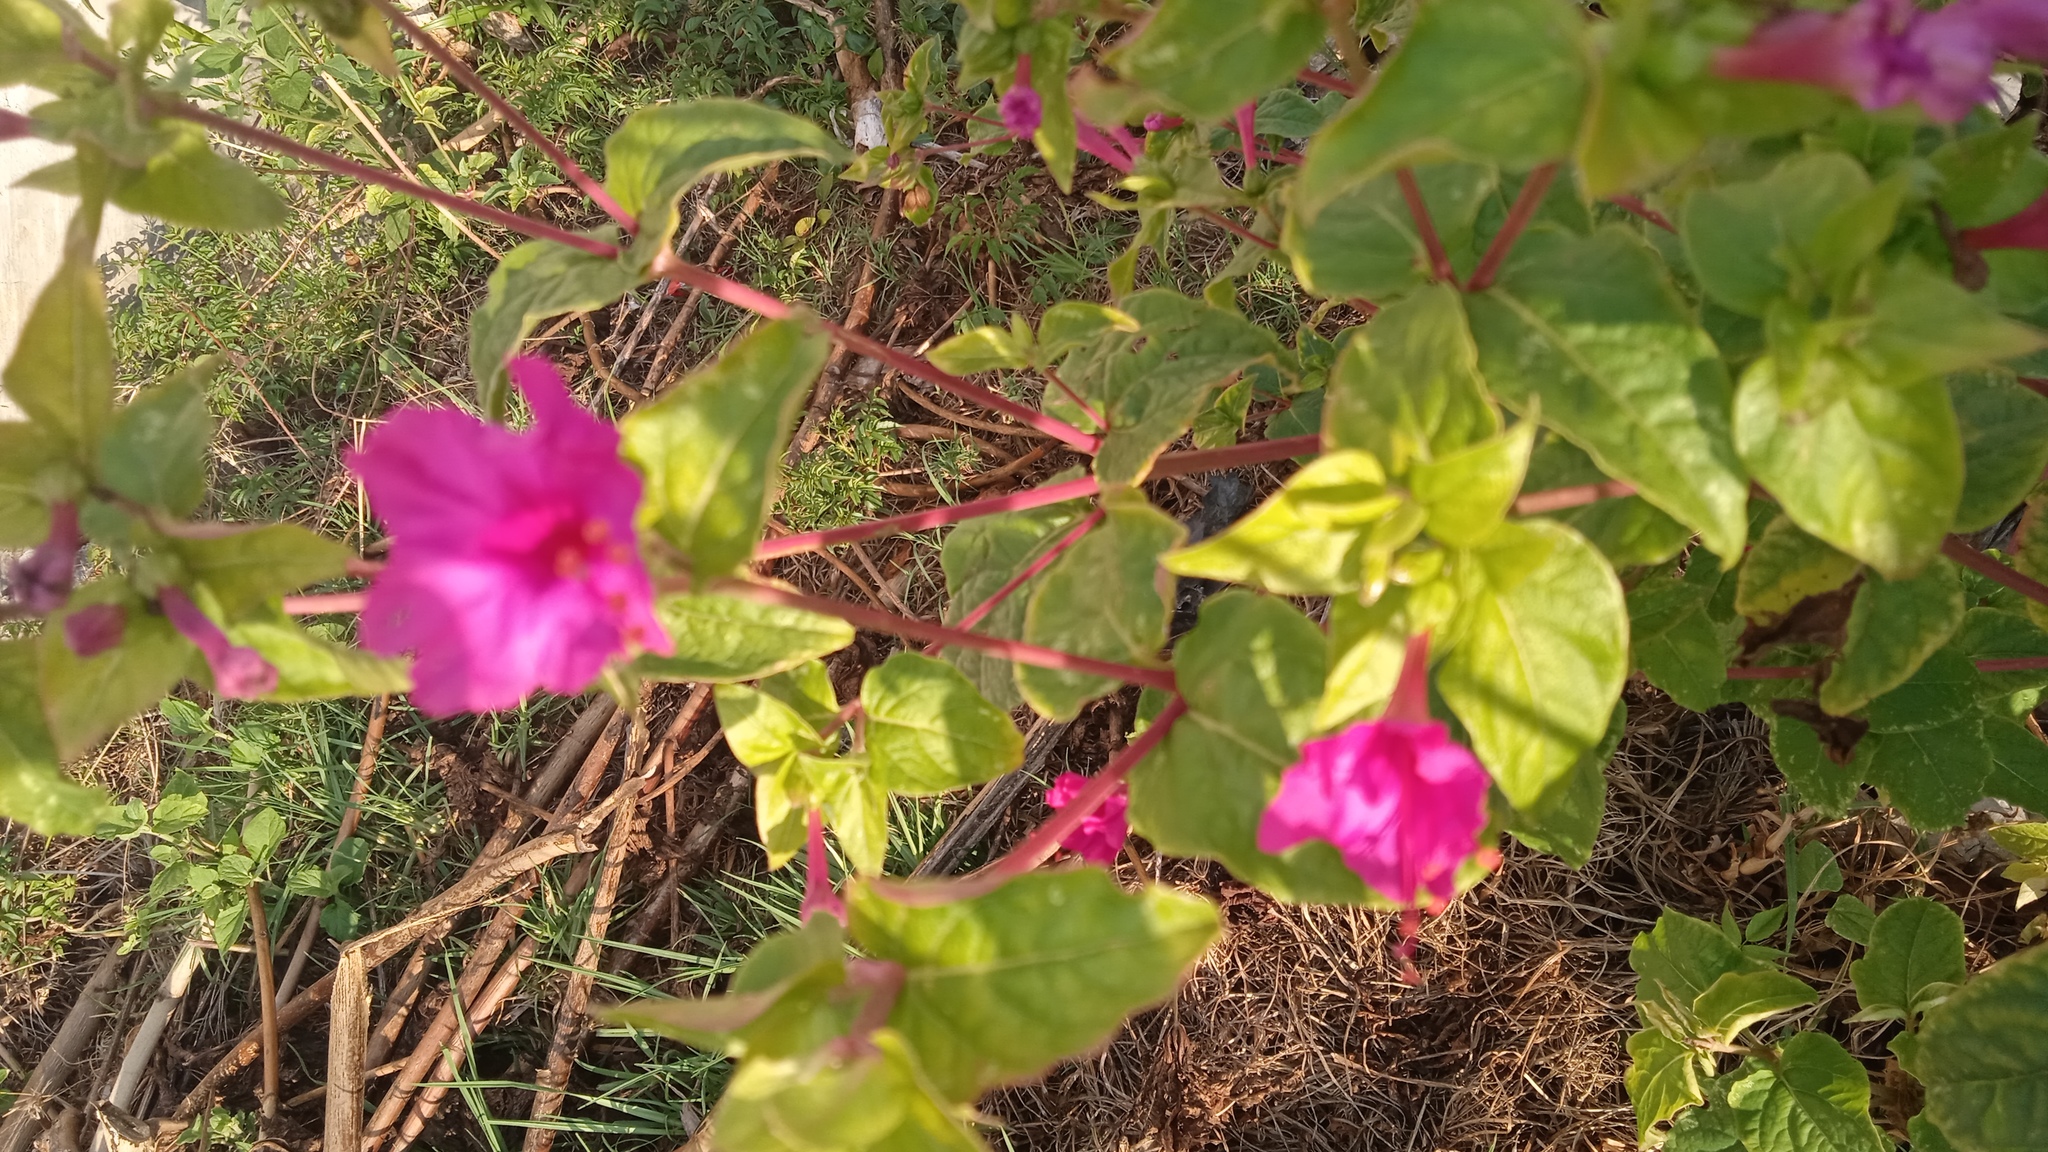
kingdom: Plantae
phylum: Tracheophyta
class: Magnoliopsida
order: Caryophyllales
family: Nyctaginaceae
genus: Mirabilis
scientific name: Mirabilis jalapa
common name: Marvel-of-peru
